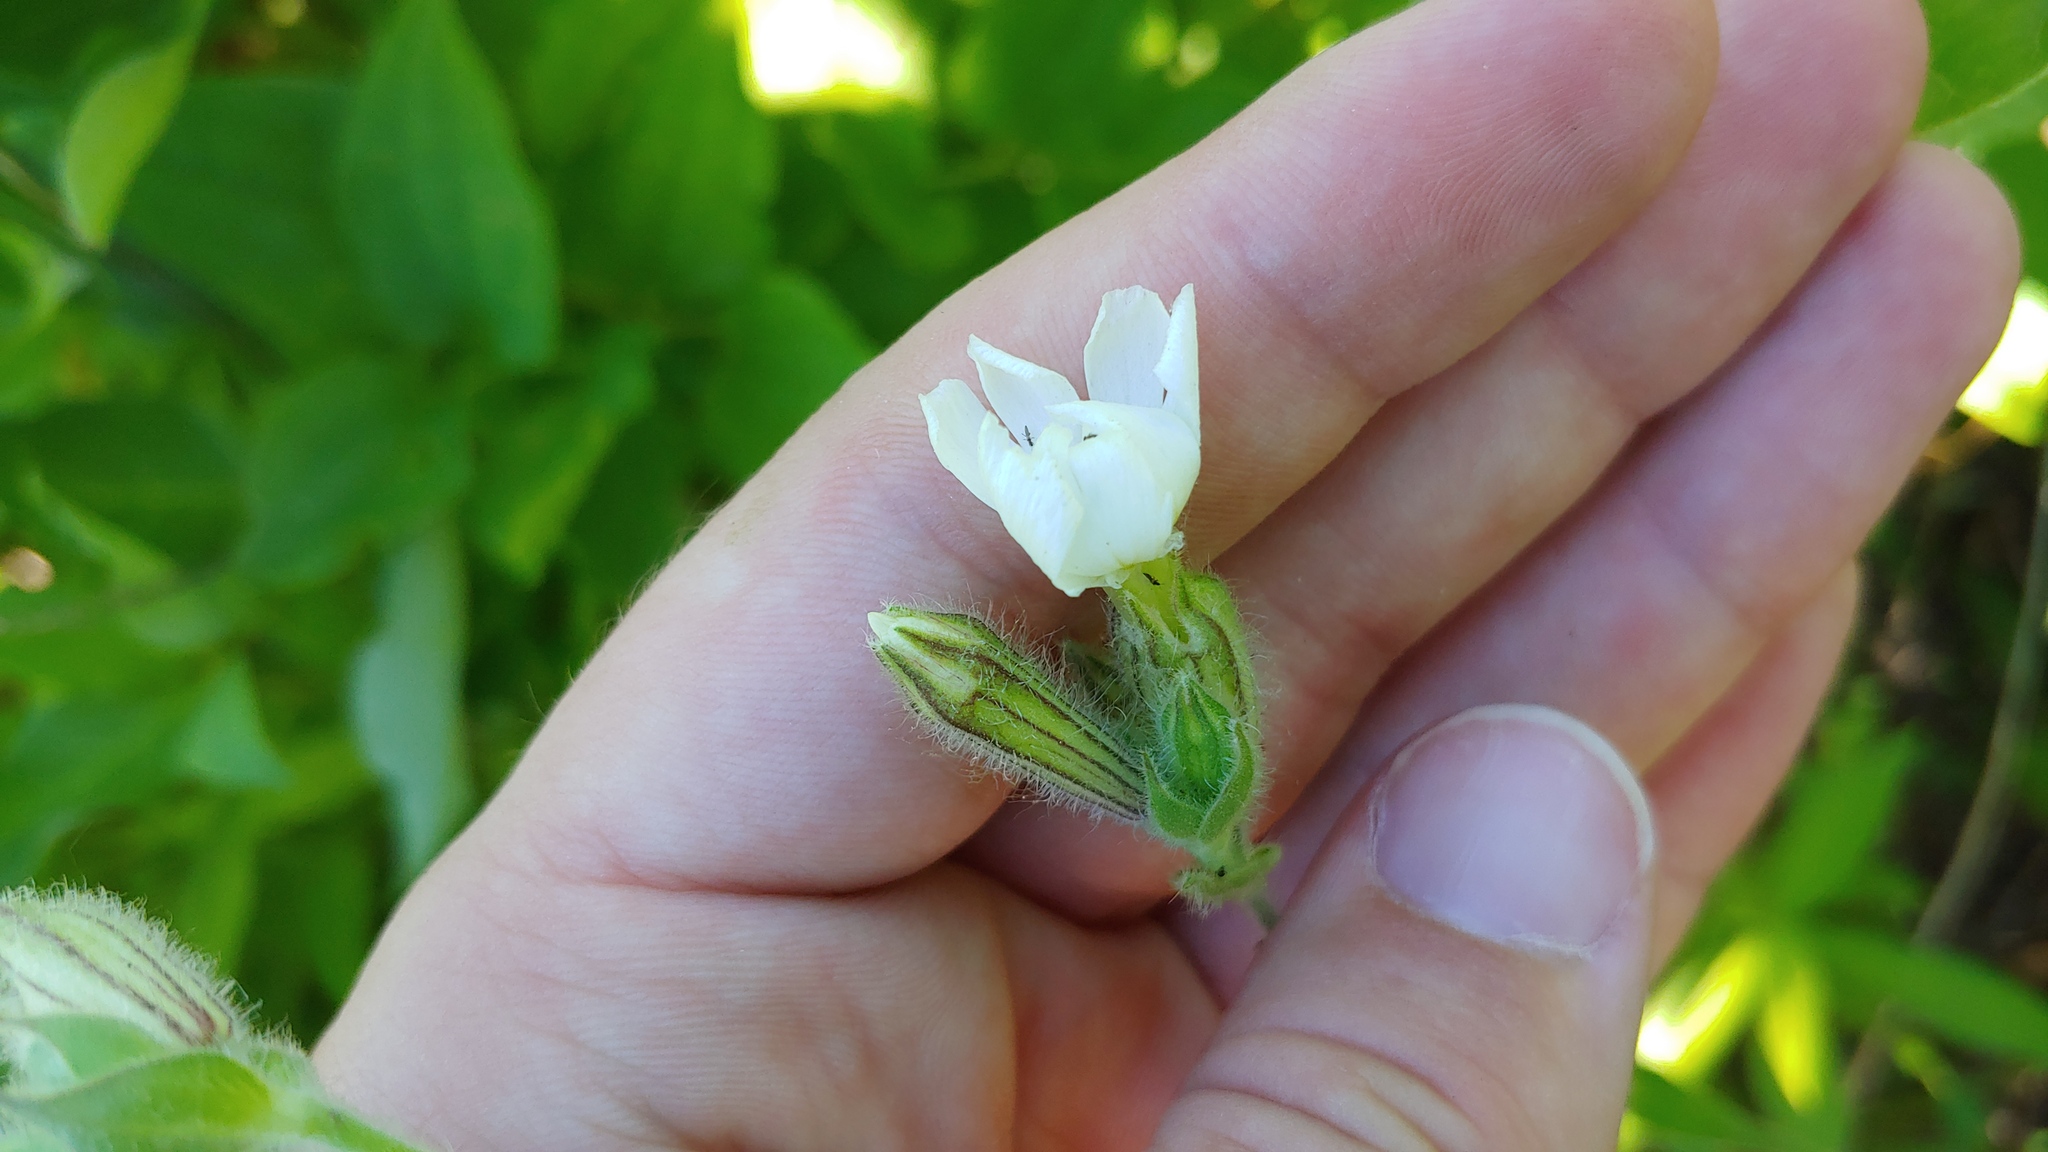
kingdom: Plantae
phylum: Tracheophyta
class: Magnoliopsida
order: Caryophyllales
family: Caryophyllaceae
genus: Silene
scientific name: Silene latifolia
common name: White campion
